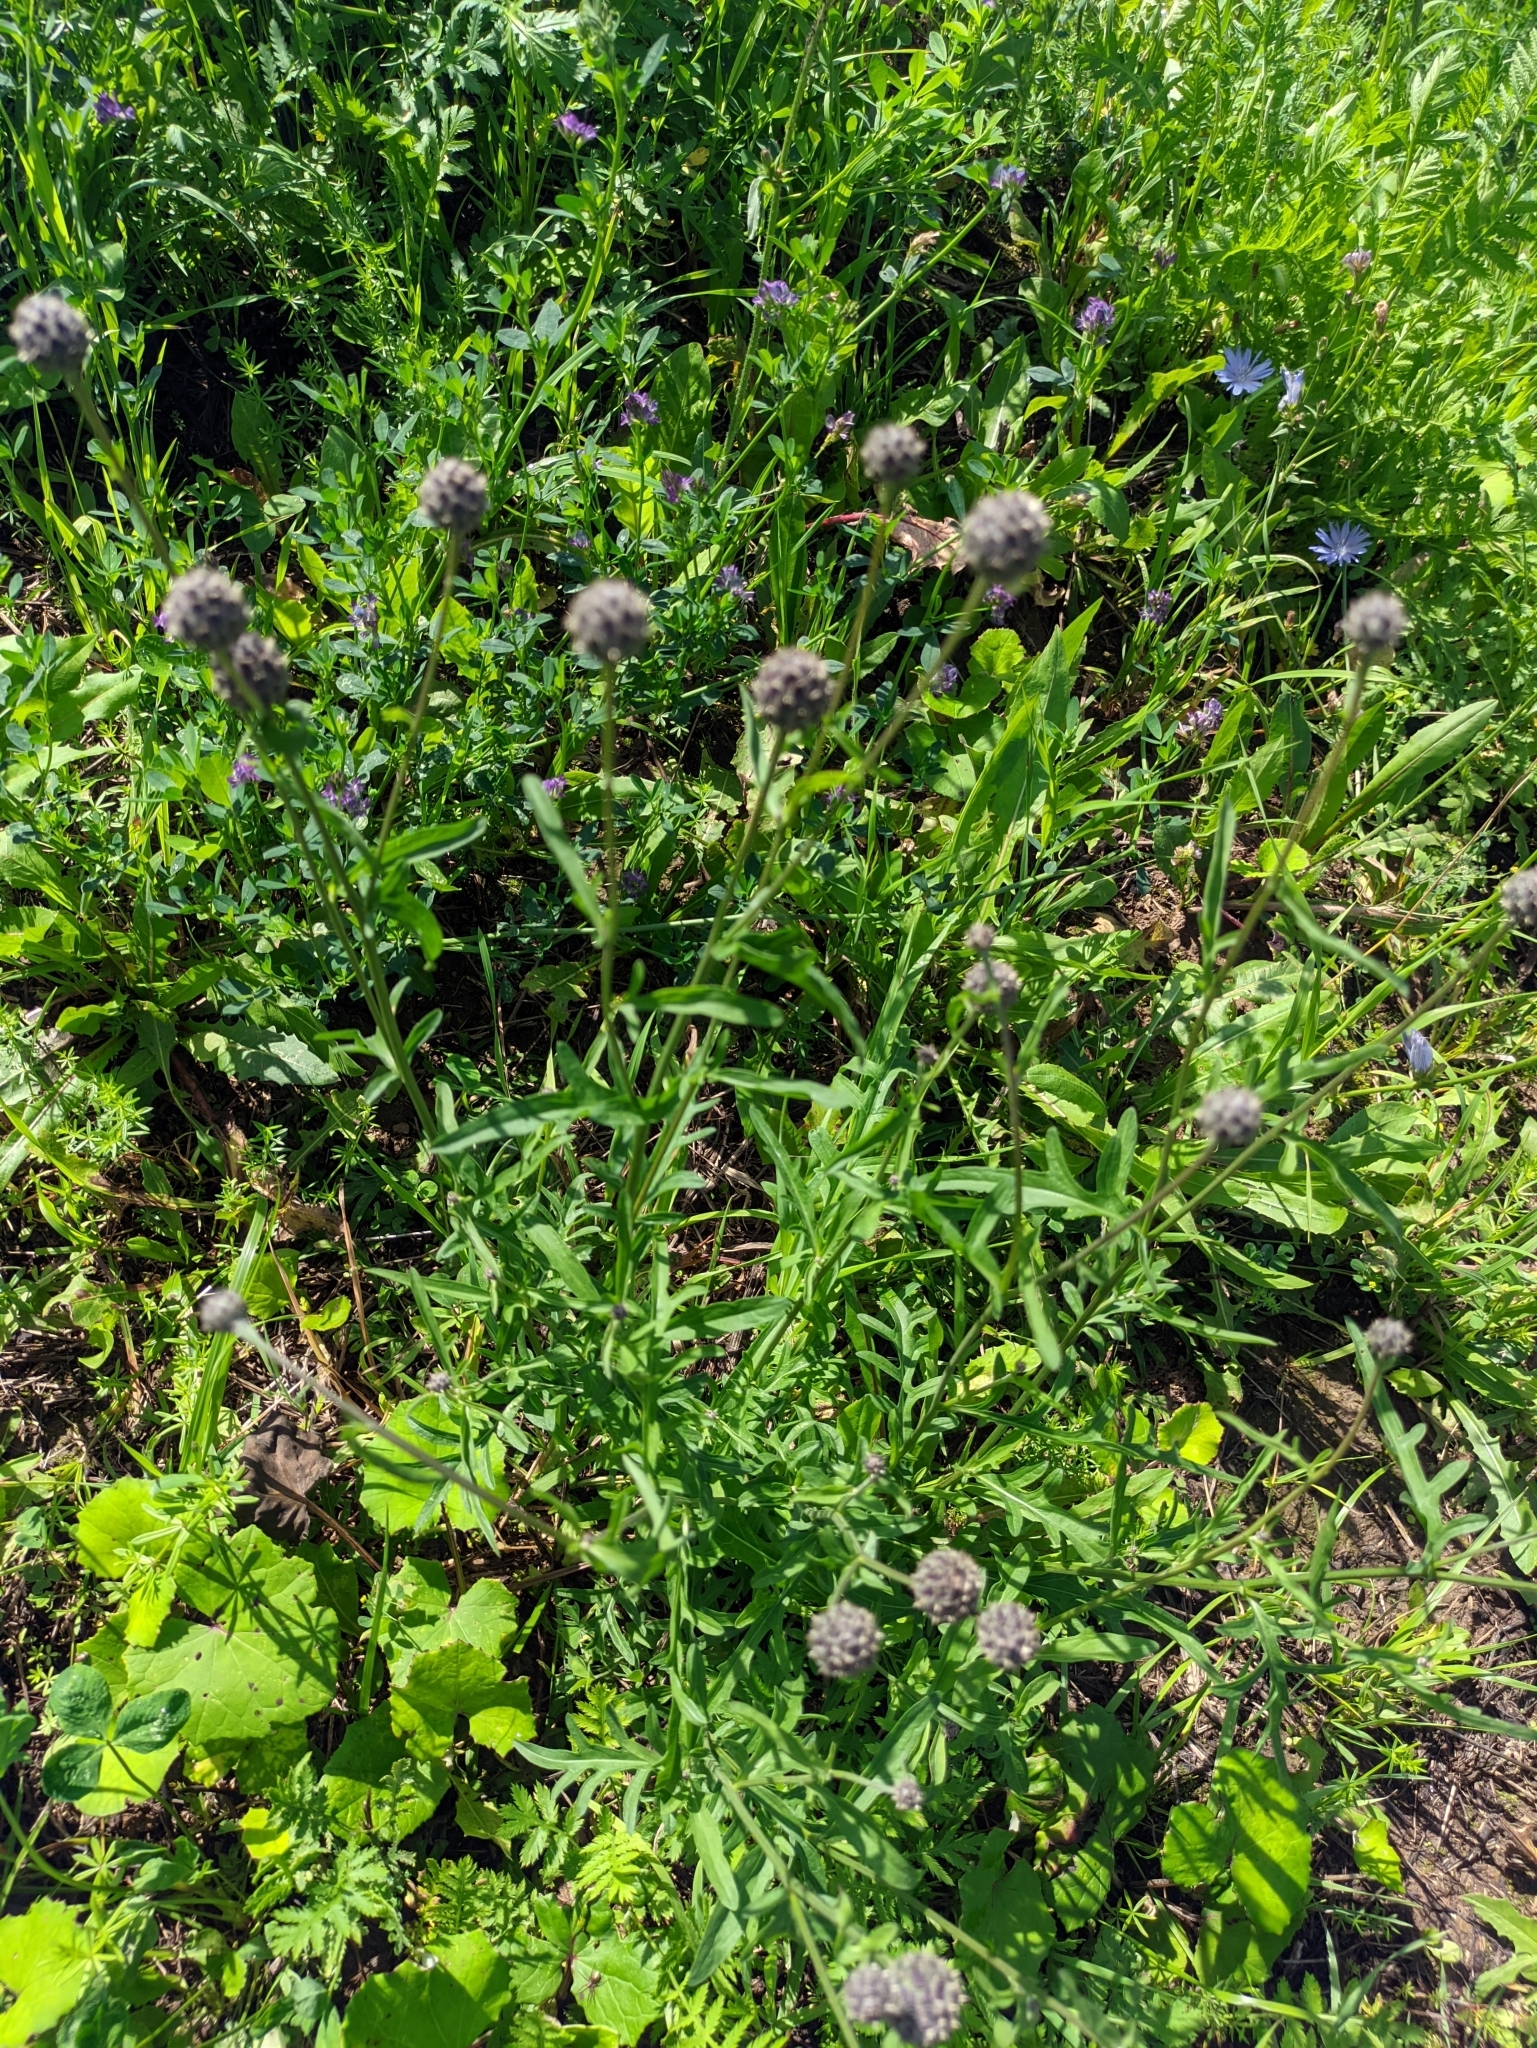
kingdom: Plantae
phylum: Tracheophyta
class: Magnoliopsida
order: Asterales
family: Asteraceae
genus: Centaurea
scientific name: Centaurea scabiosa
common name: Greater knapweed
